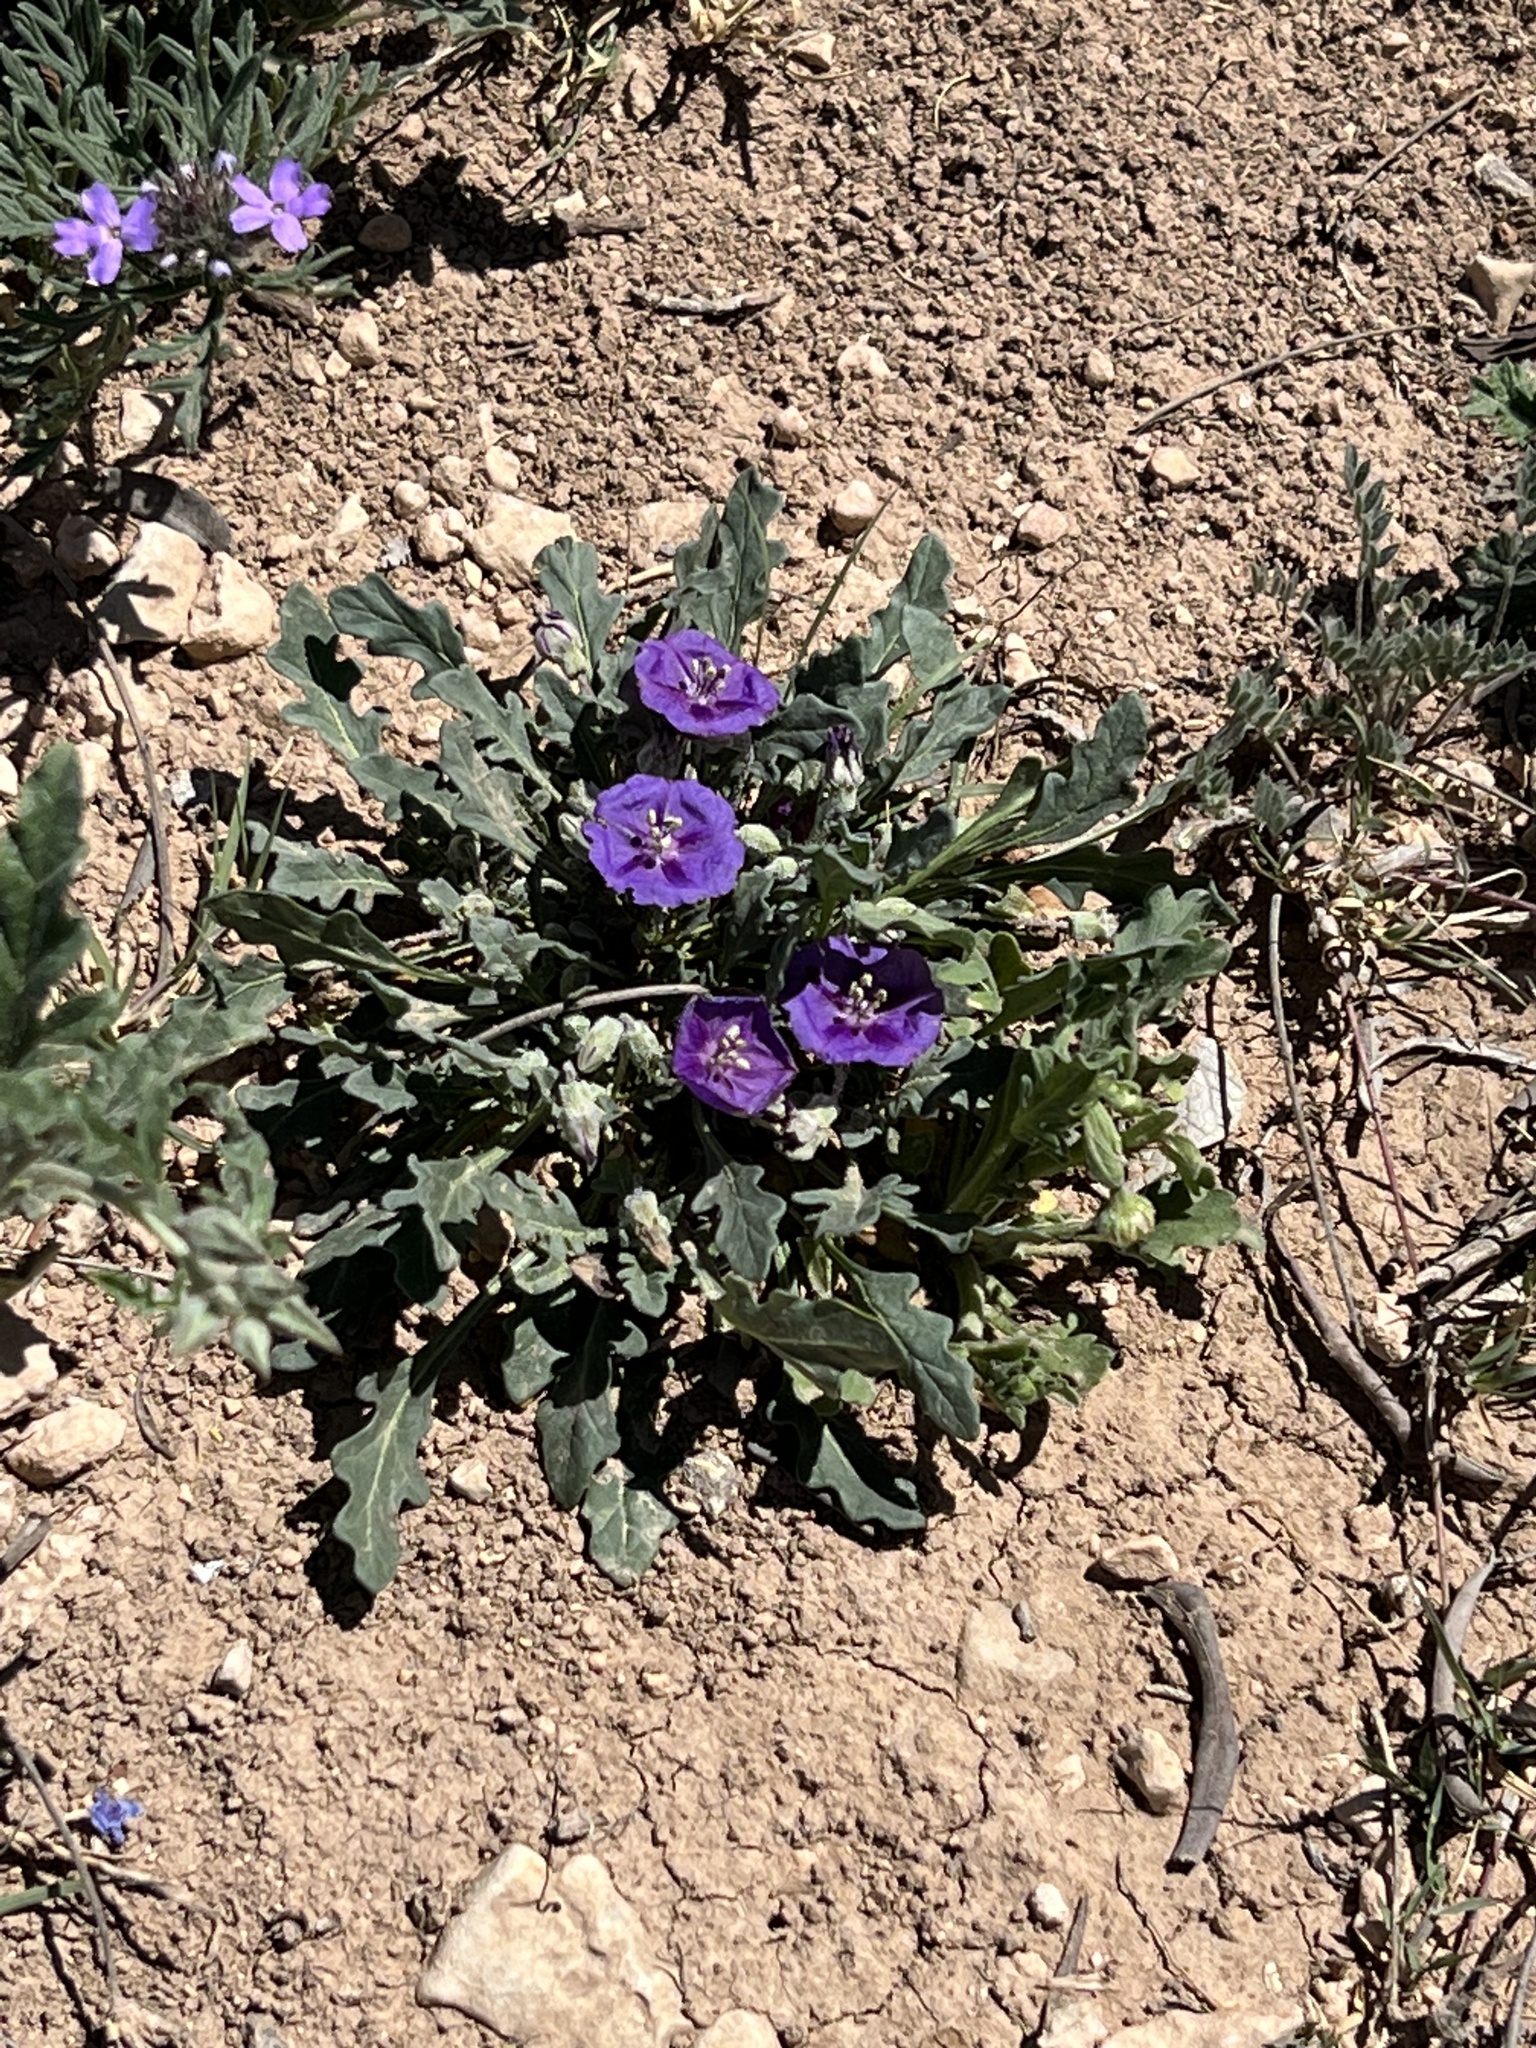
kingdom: Plantae
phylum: Tracheophyta
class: Magnoliopsida
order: Solanales
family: Solanaceae
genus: Quincula
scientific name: Quincula lobata
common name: Purple-ground-cherry
